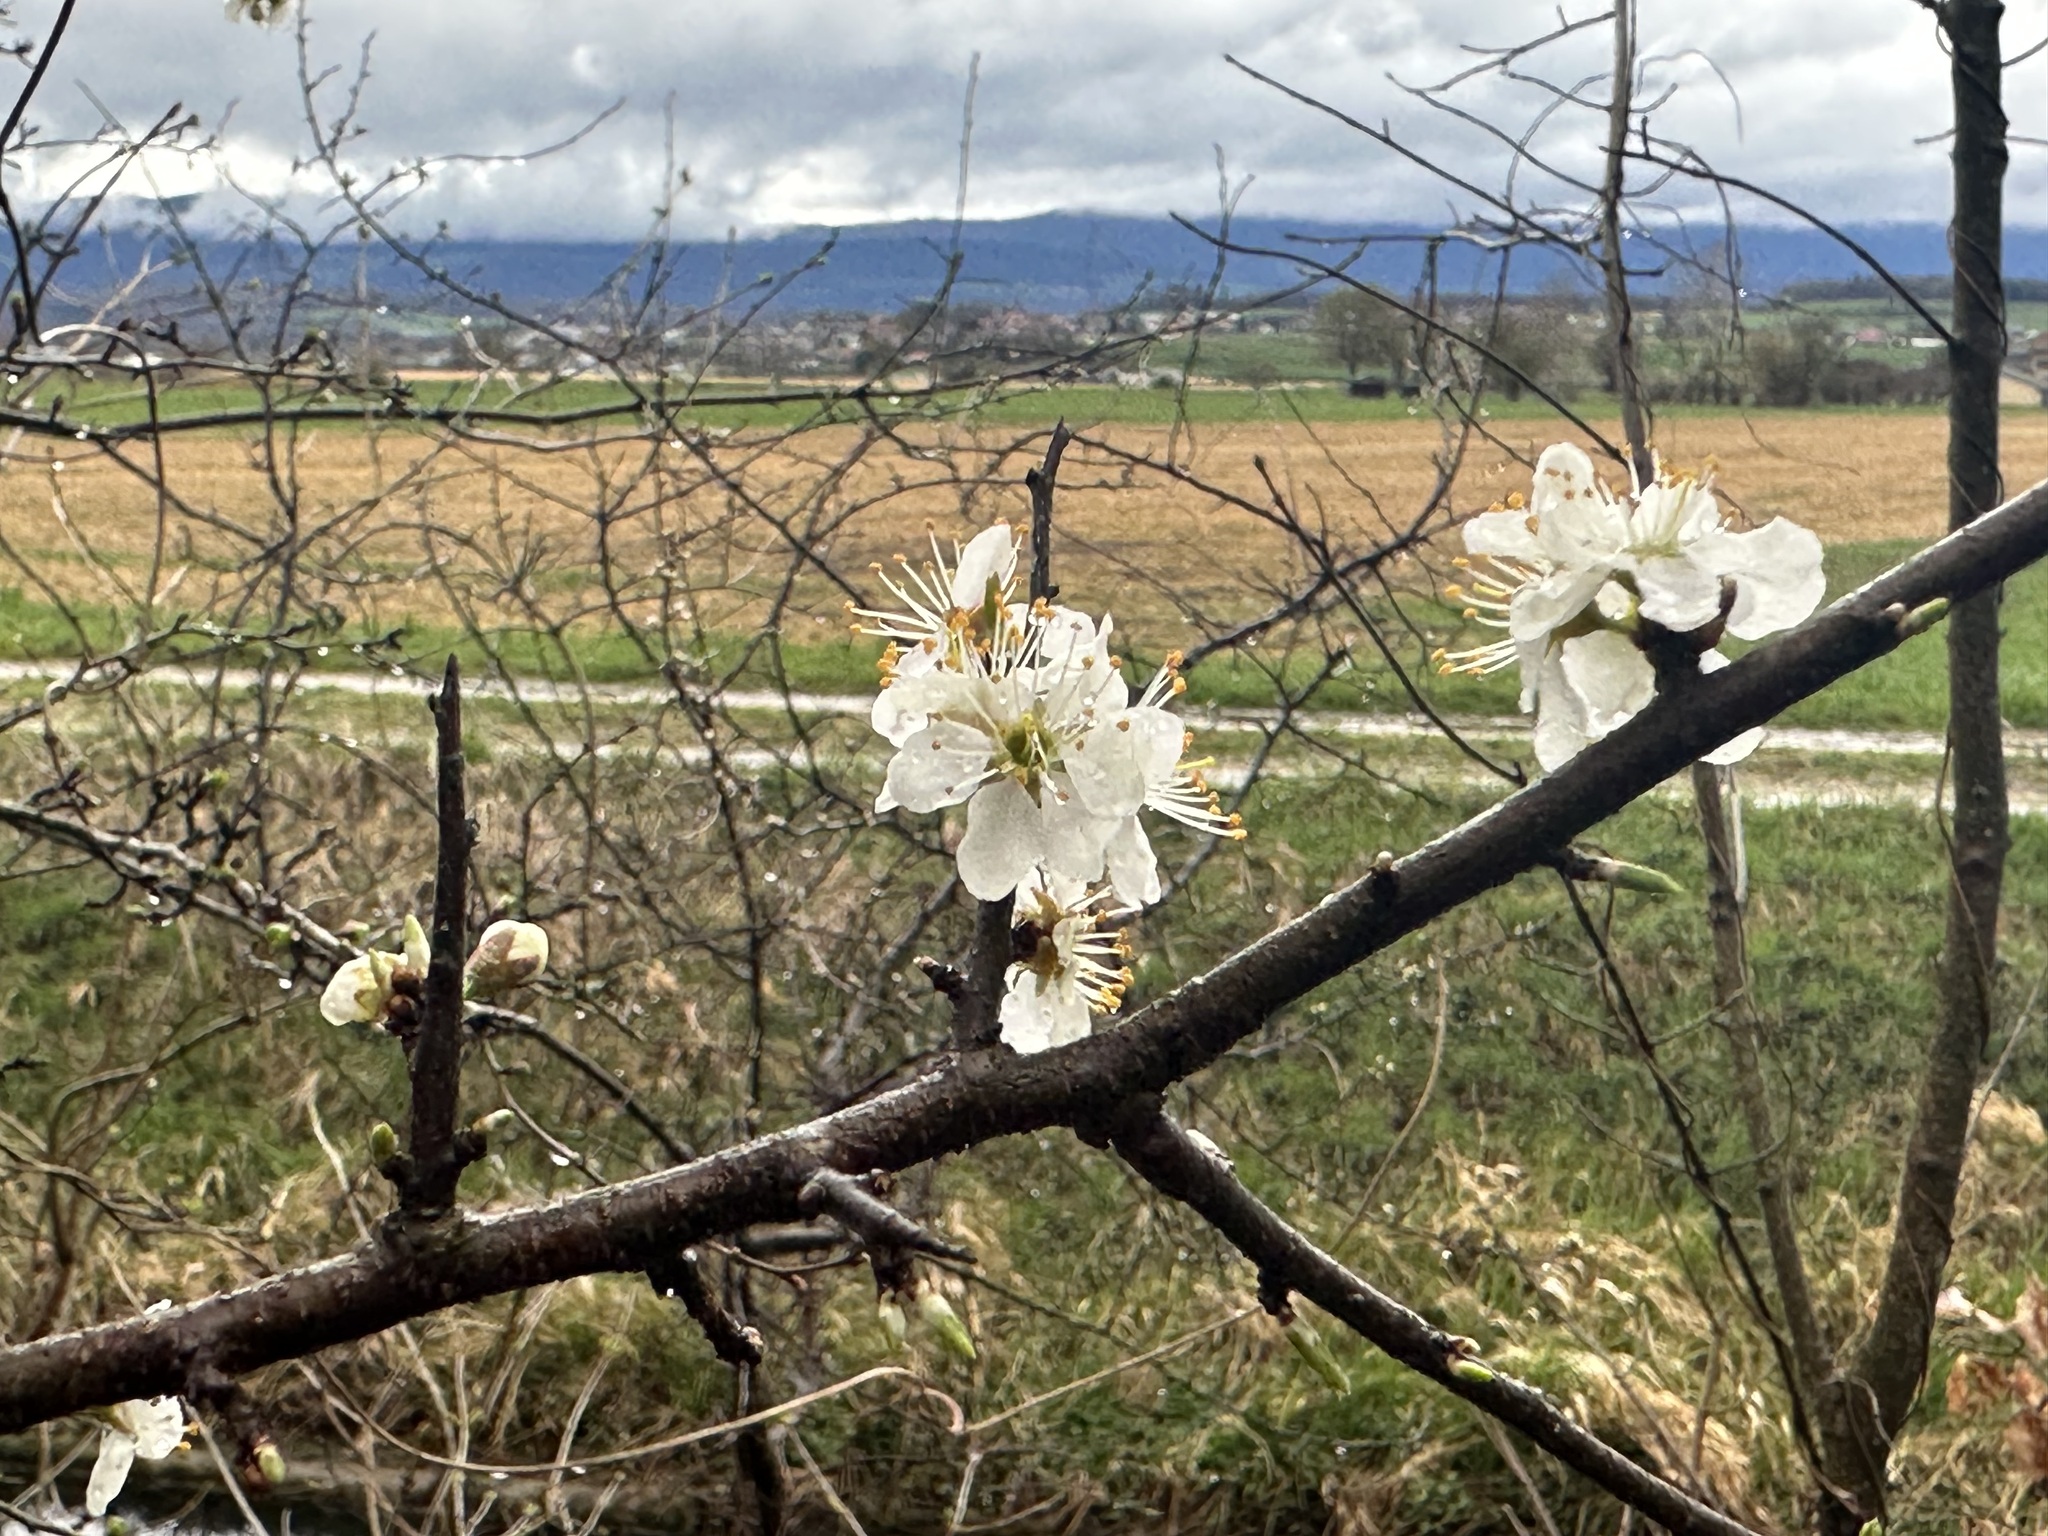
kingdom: Plantae
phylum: Tracheophyta
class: Magnoliopsida
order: Rosales
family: Rosaceae
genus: Prunus
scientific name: Prunus spinosa
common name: Blackthorn
